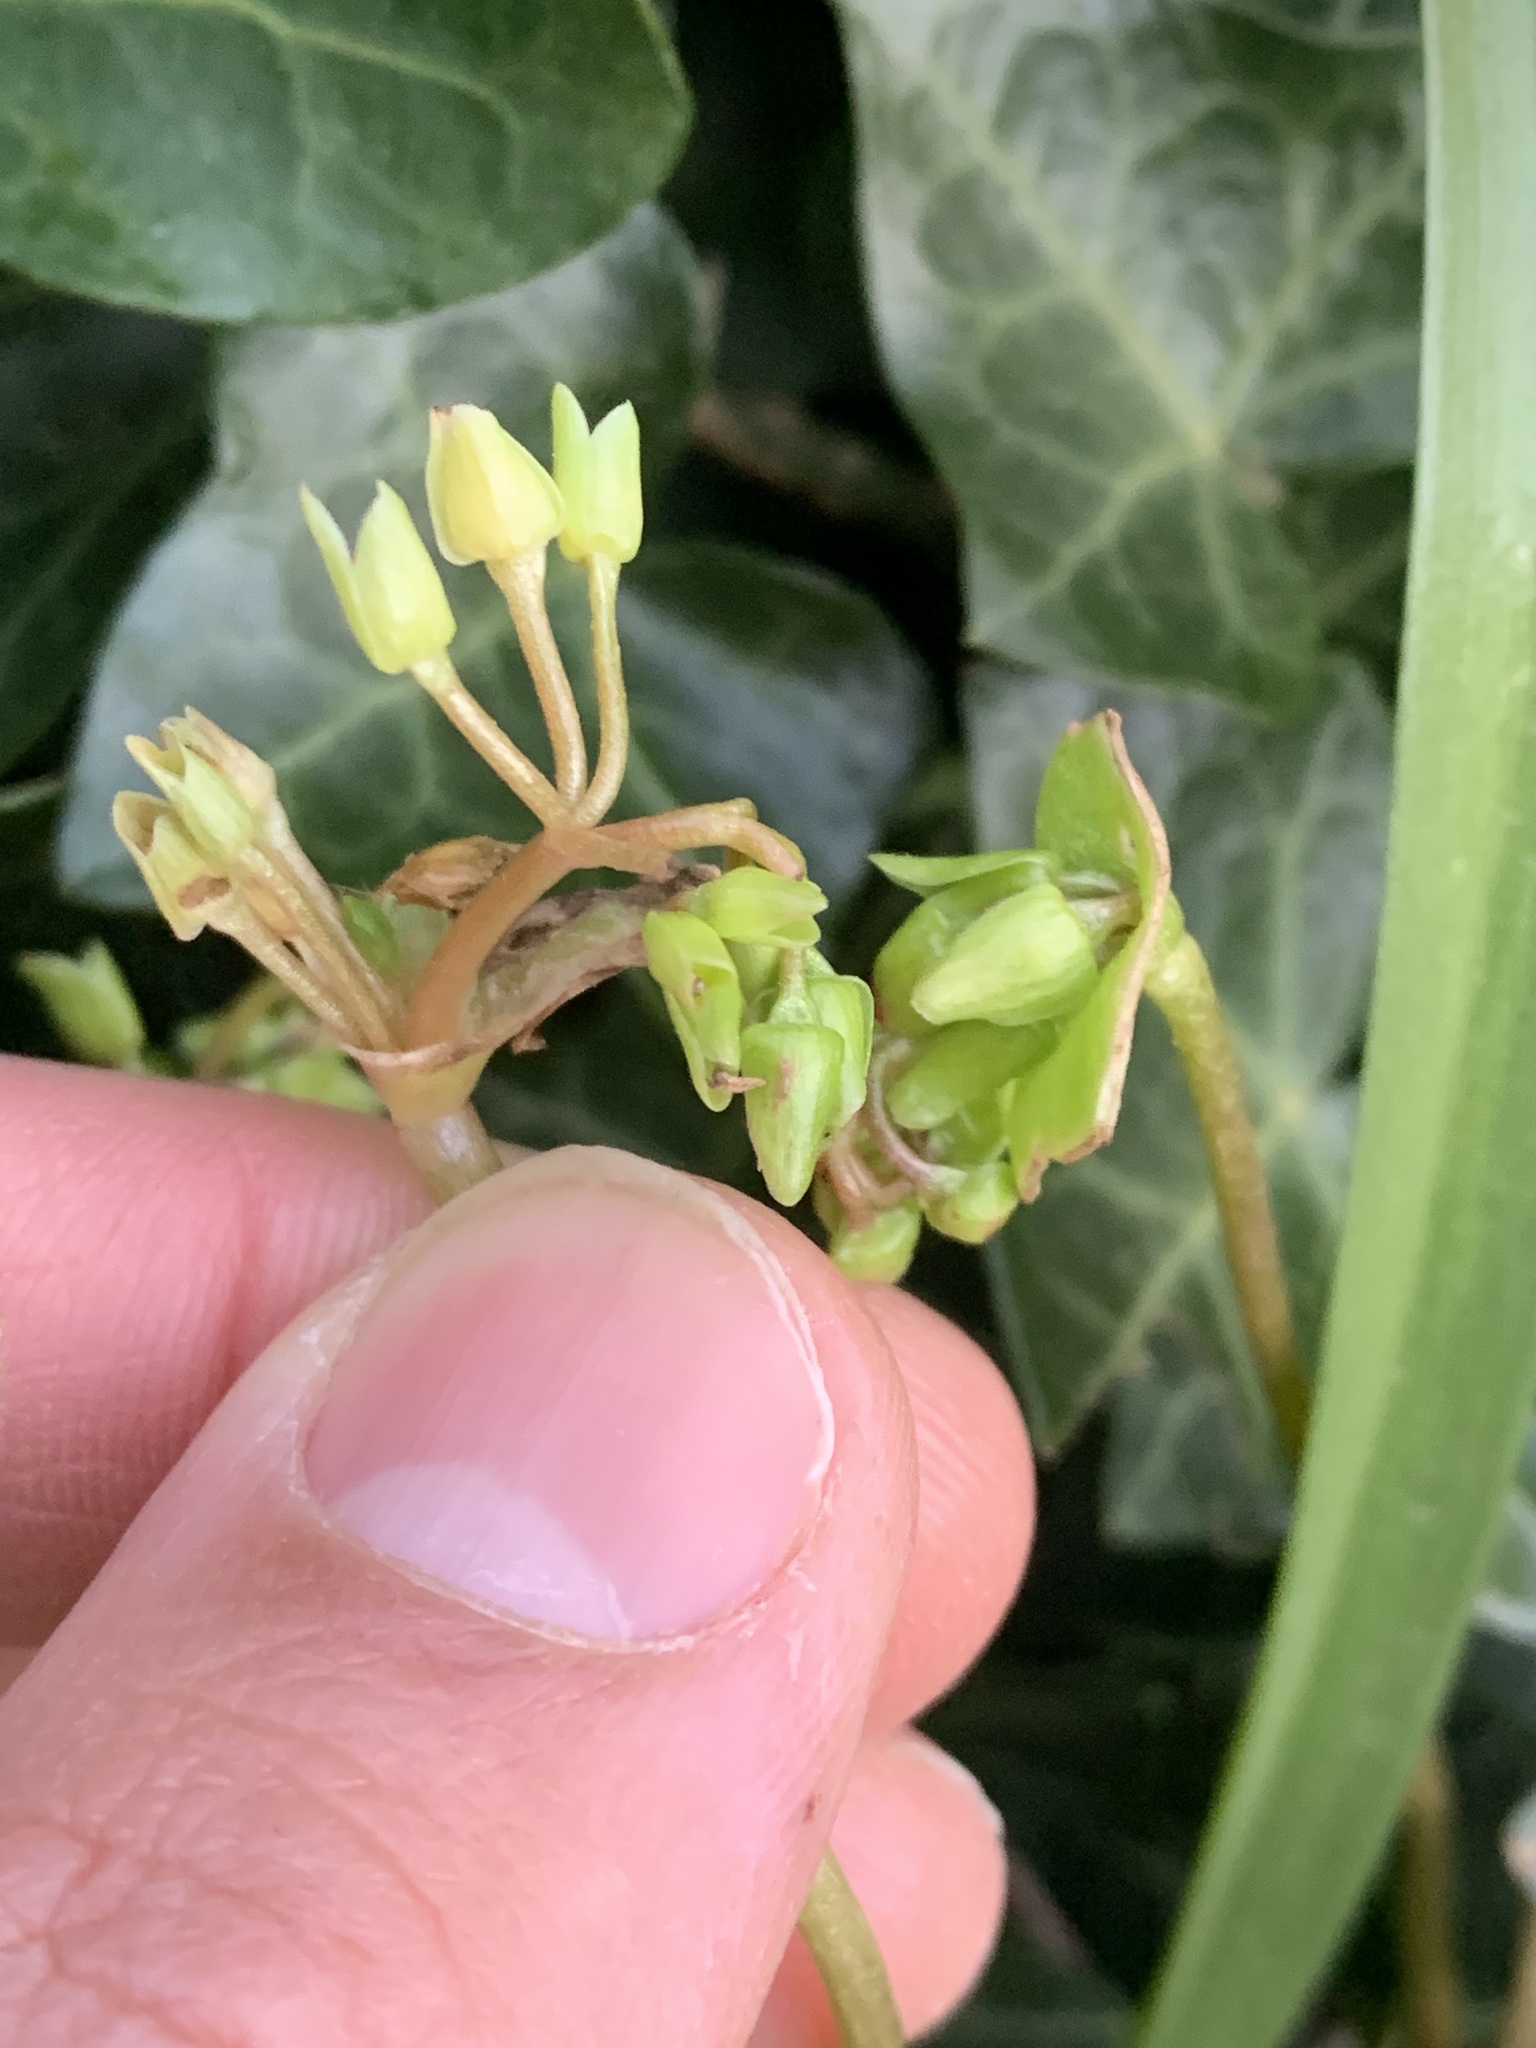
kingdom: Plantae
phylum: Tracheophyta
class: Magnoliopsida
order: Caryophyllales
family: Montiaceae
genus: Claytonia
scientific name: Claytonia rubra
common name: Erubescent miner's-lettuce
